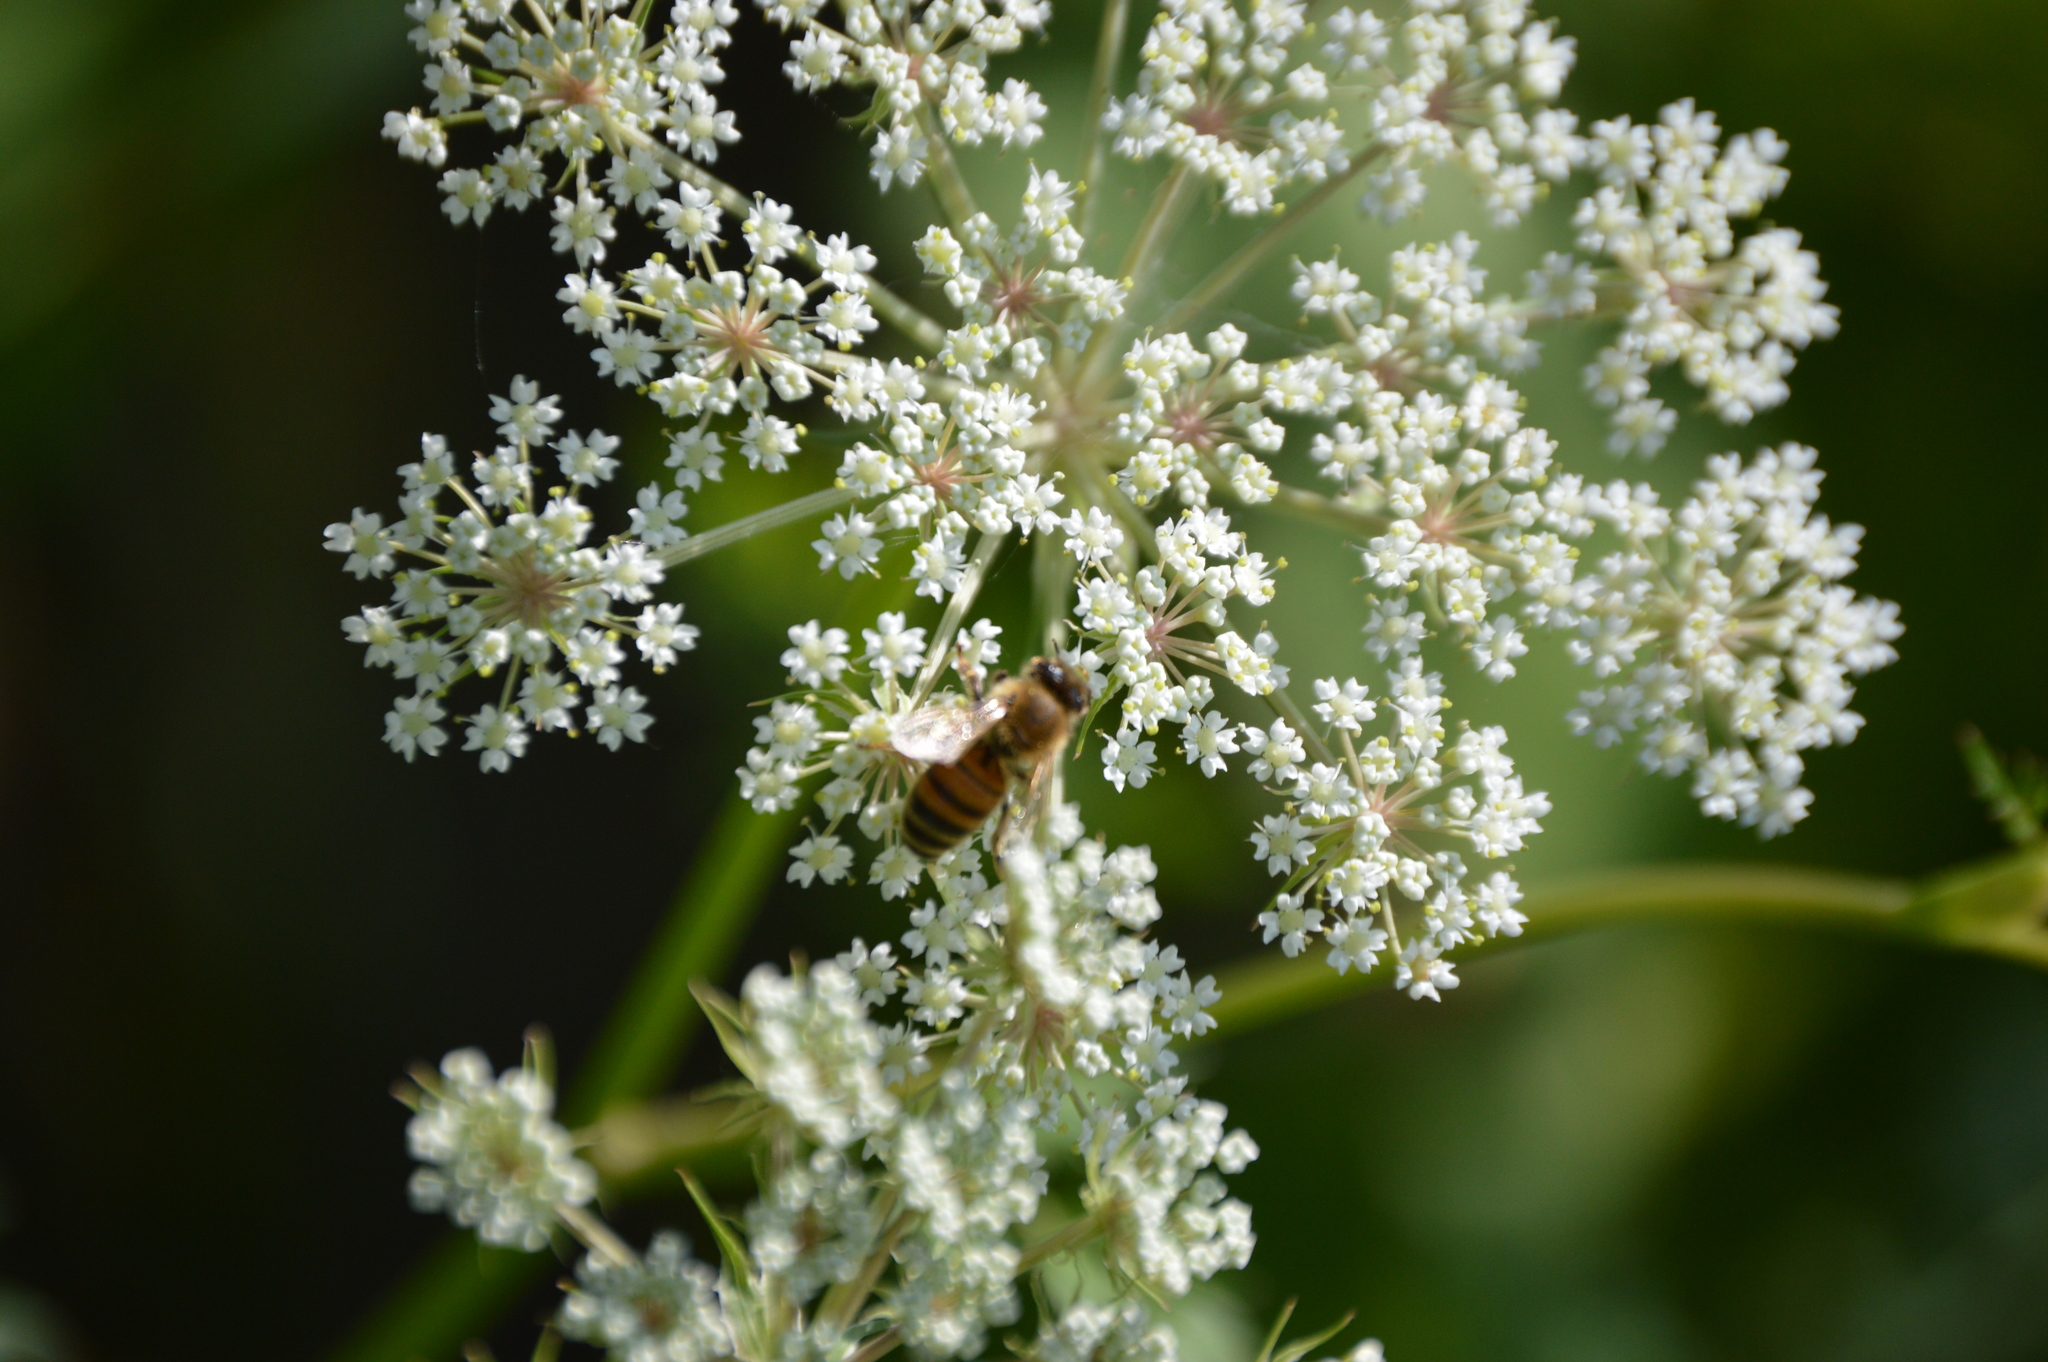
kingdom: Animalia
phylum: Arthropoda
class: Insecta
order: Hymenoptera
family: Apidae
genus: Apis
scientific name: Apis mellifera
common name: Honey bee
